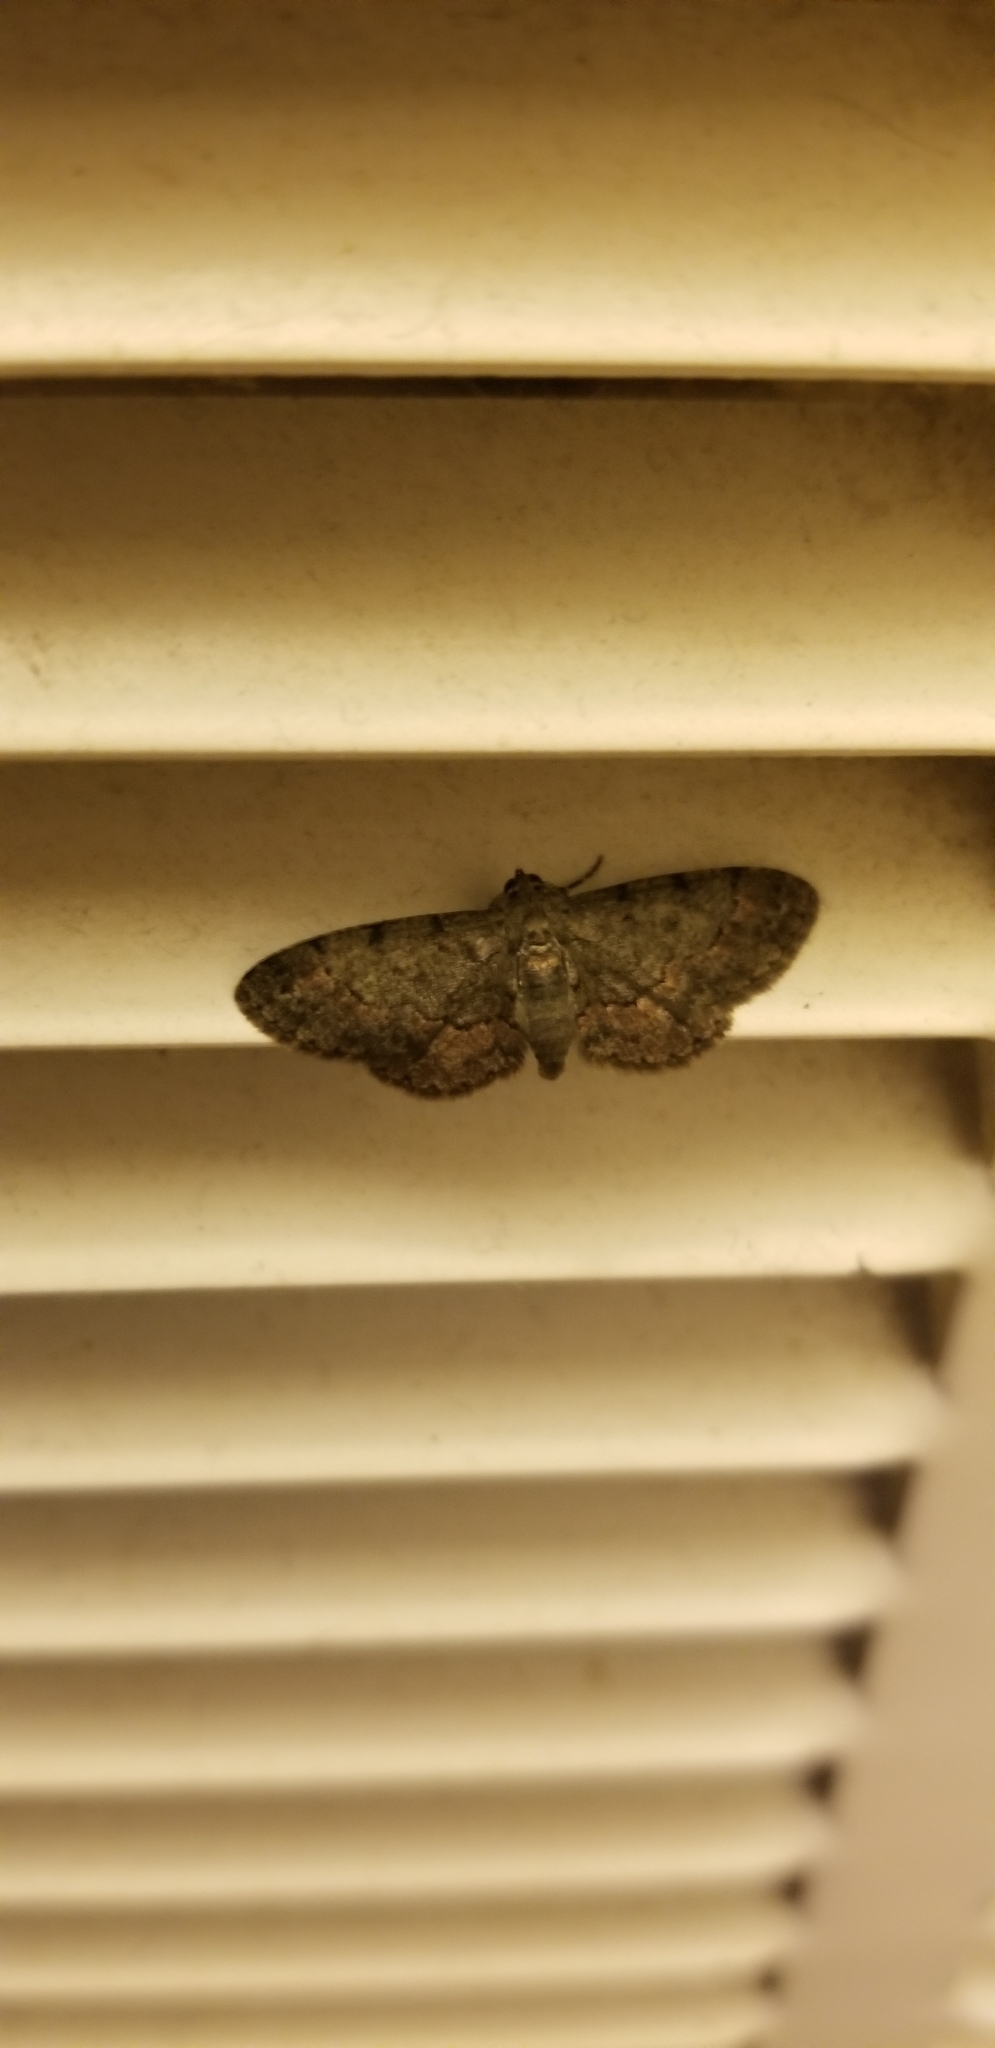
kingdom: Animalia
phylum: Arthropoda
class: Insecta
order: Lepidoptera
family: Geometridae
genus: Glenoides
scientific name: Glenoides texanaria
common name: Texas gray
